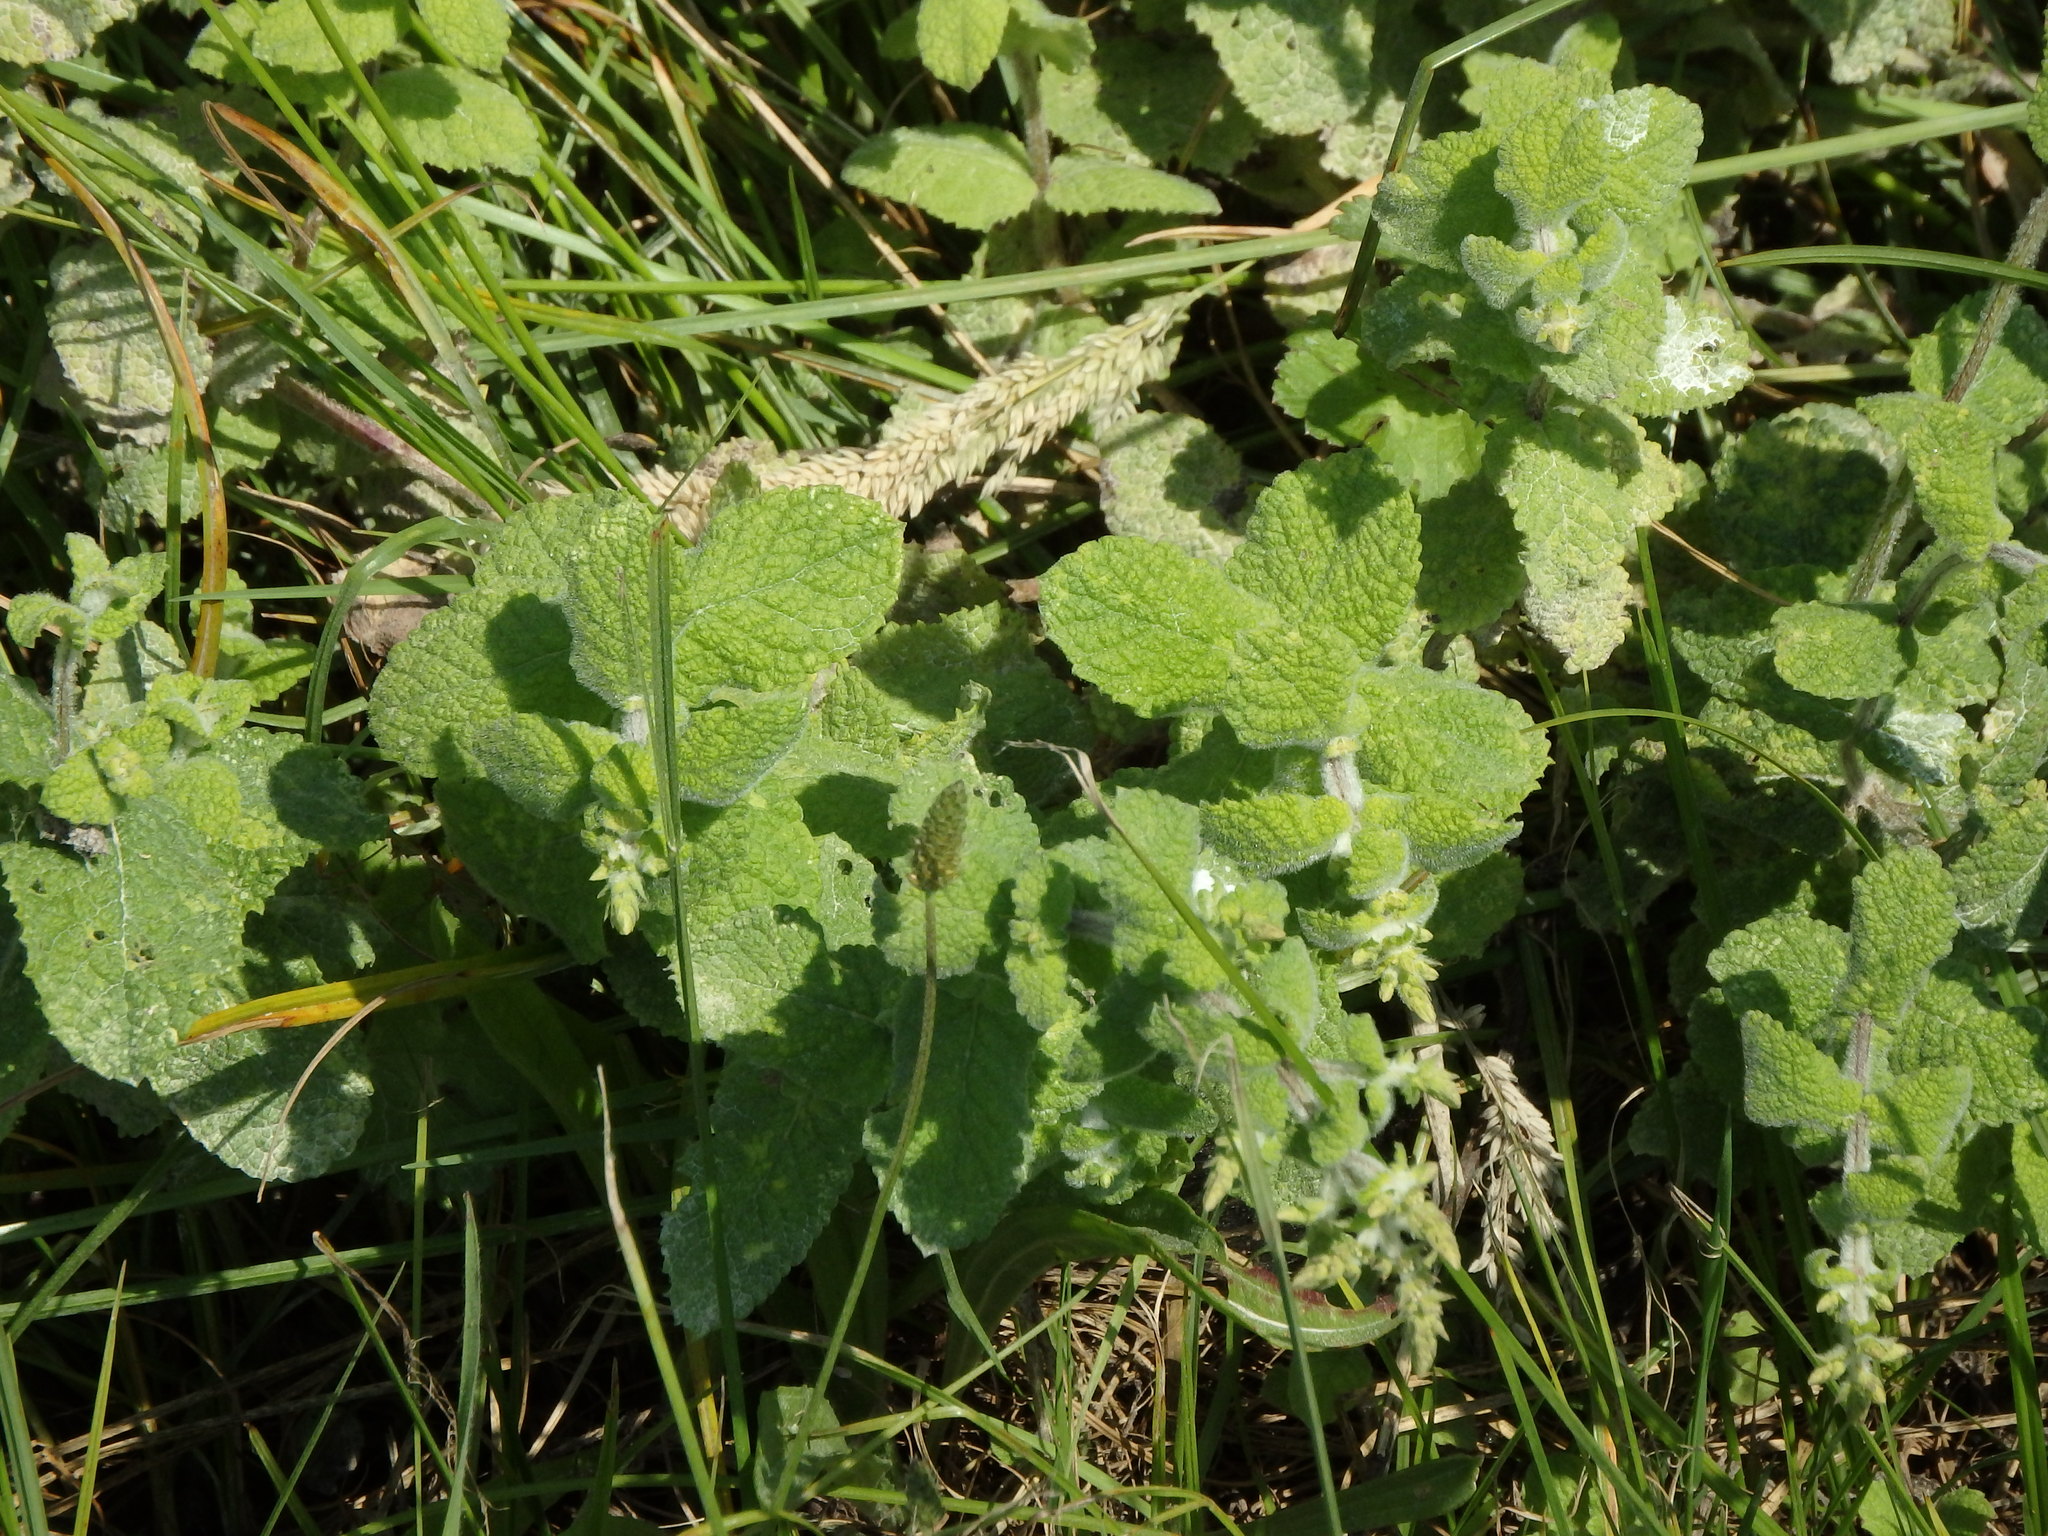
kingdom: Plantae
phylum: Tracheophyta
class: Magnoliopsida
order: Lamiales
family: Lamiaceae
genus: Mentha
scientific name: Mentha suaveolens
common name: Apple mint
